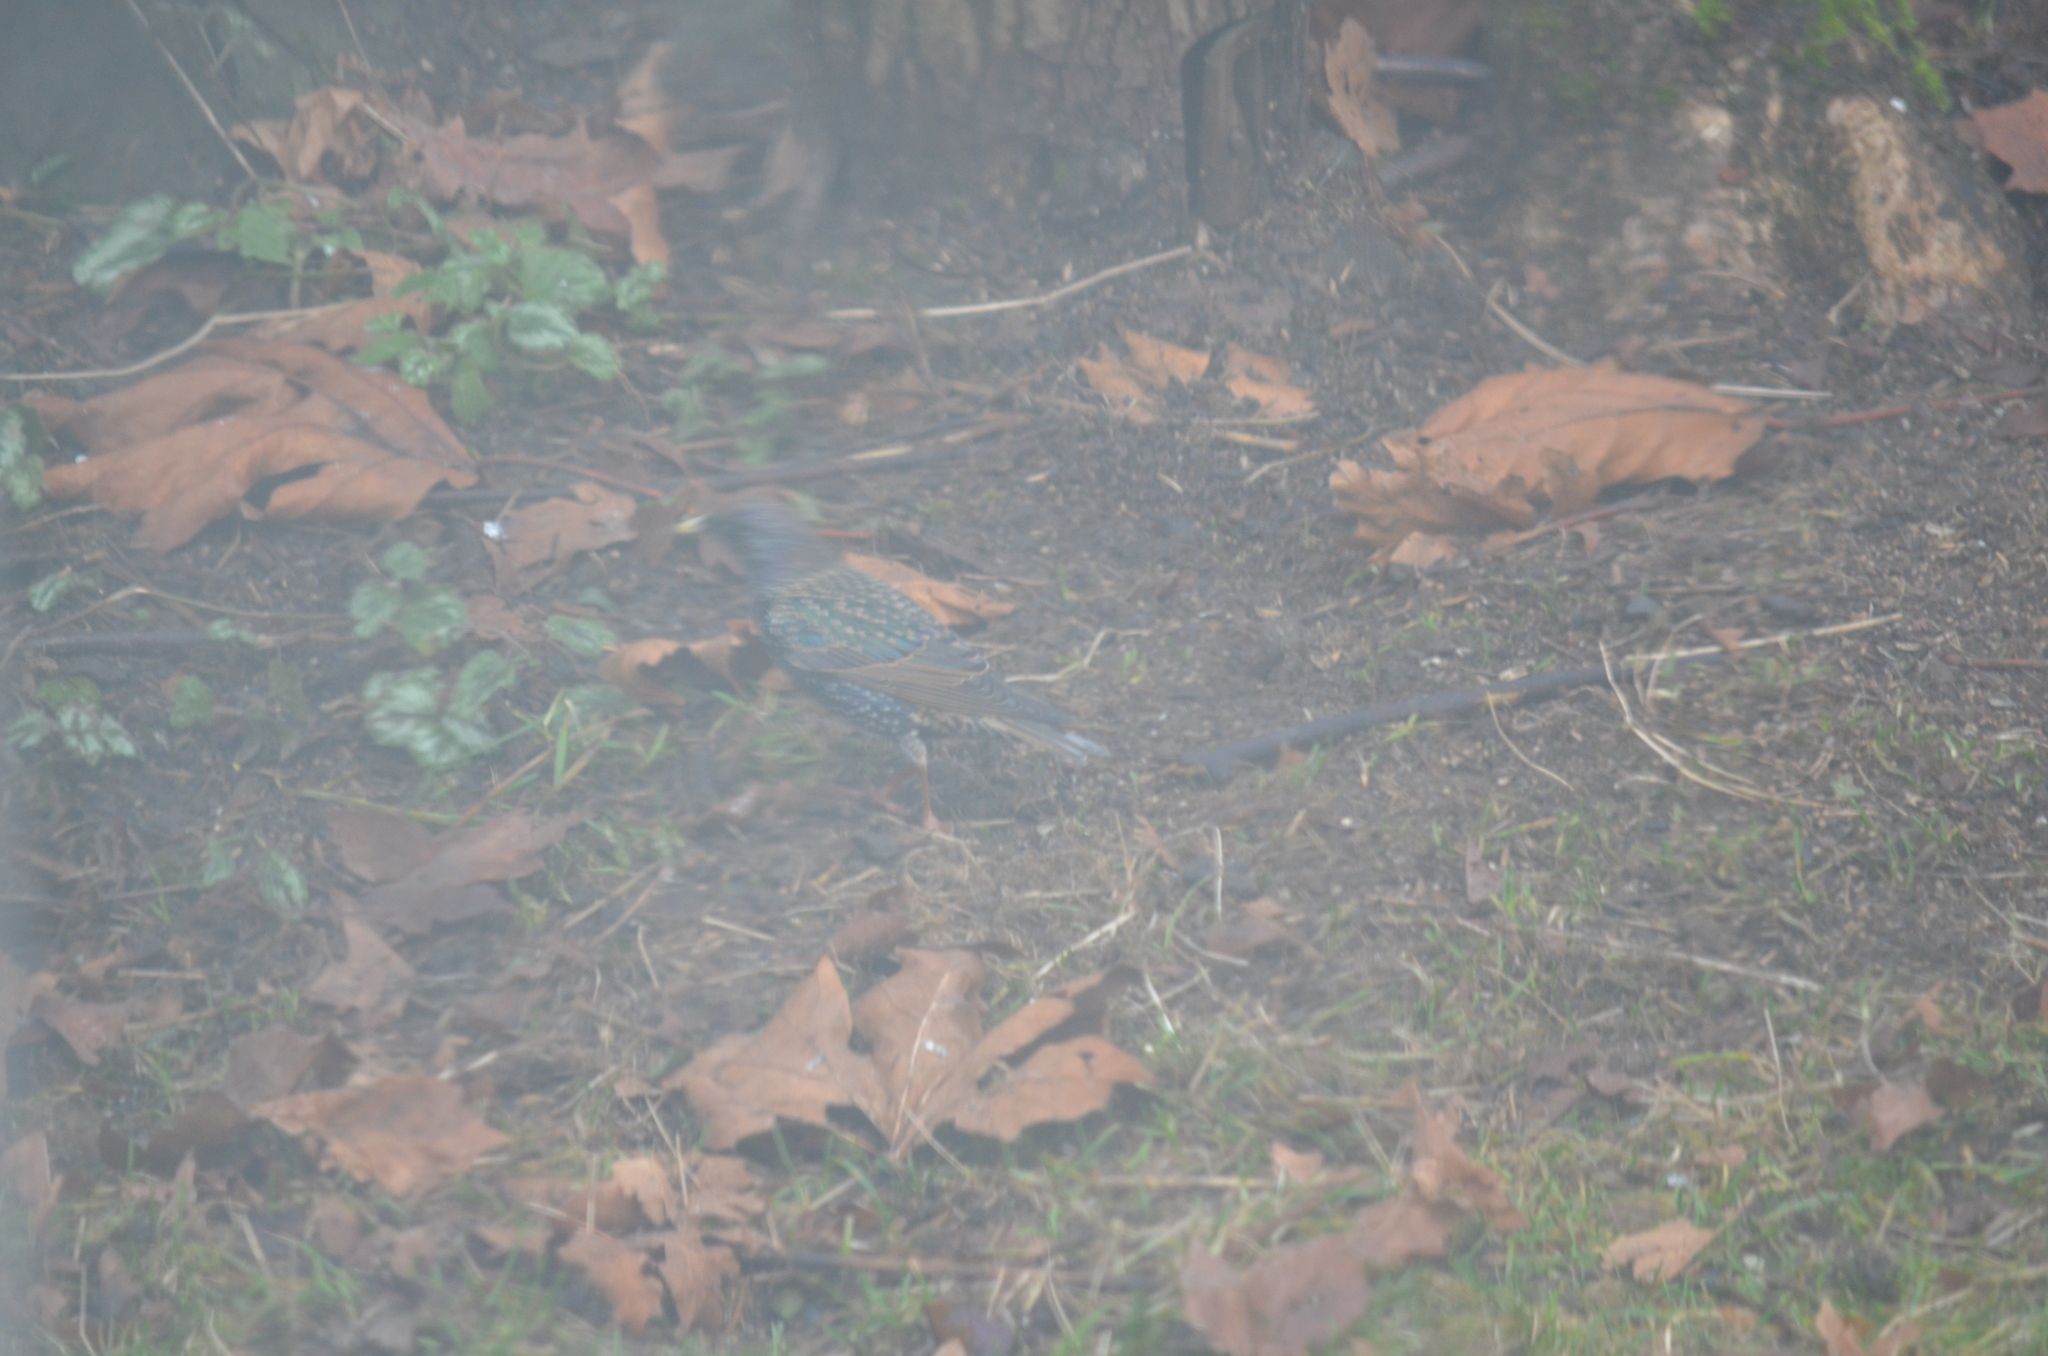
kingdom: Animalia
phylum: Chordata
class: Aves
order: Passeriformes
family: Sturnidae
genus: Sturnus
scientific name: Sturnus vulgaris
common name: Common starling
